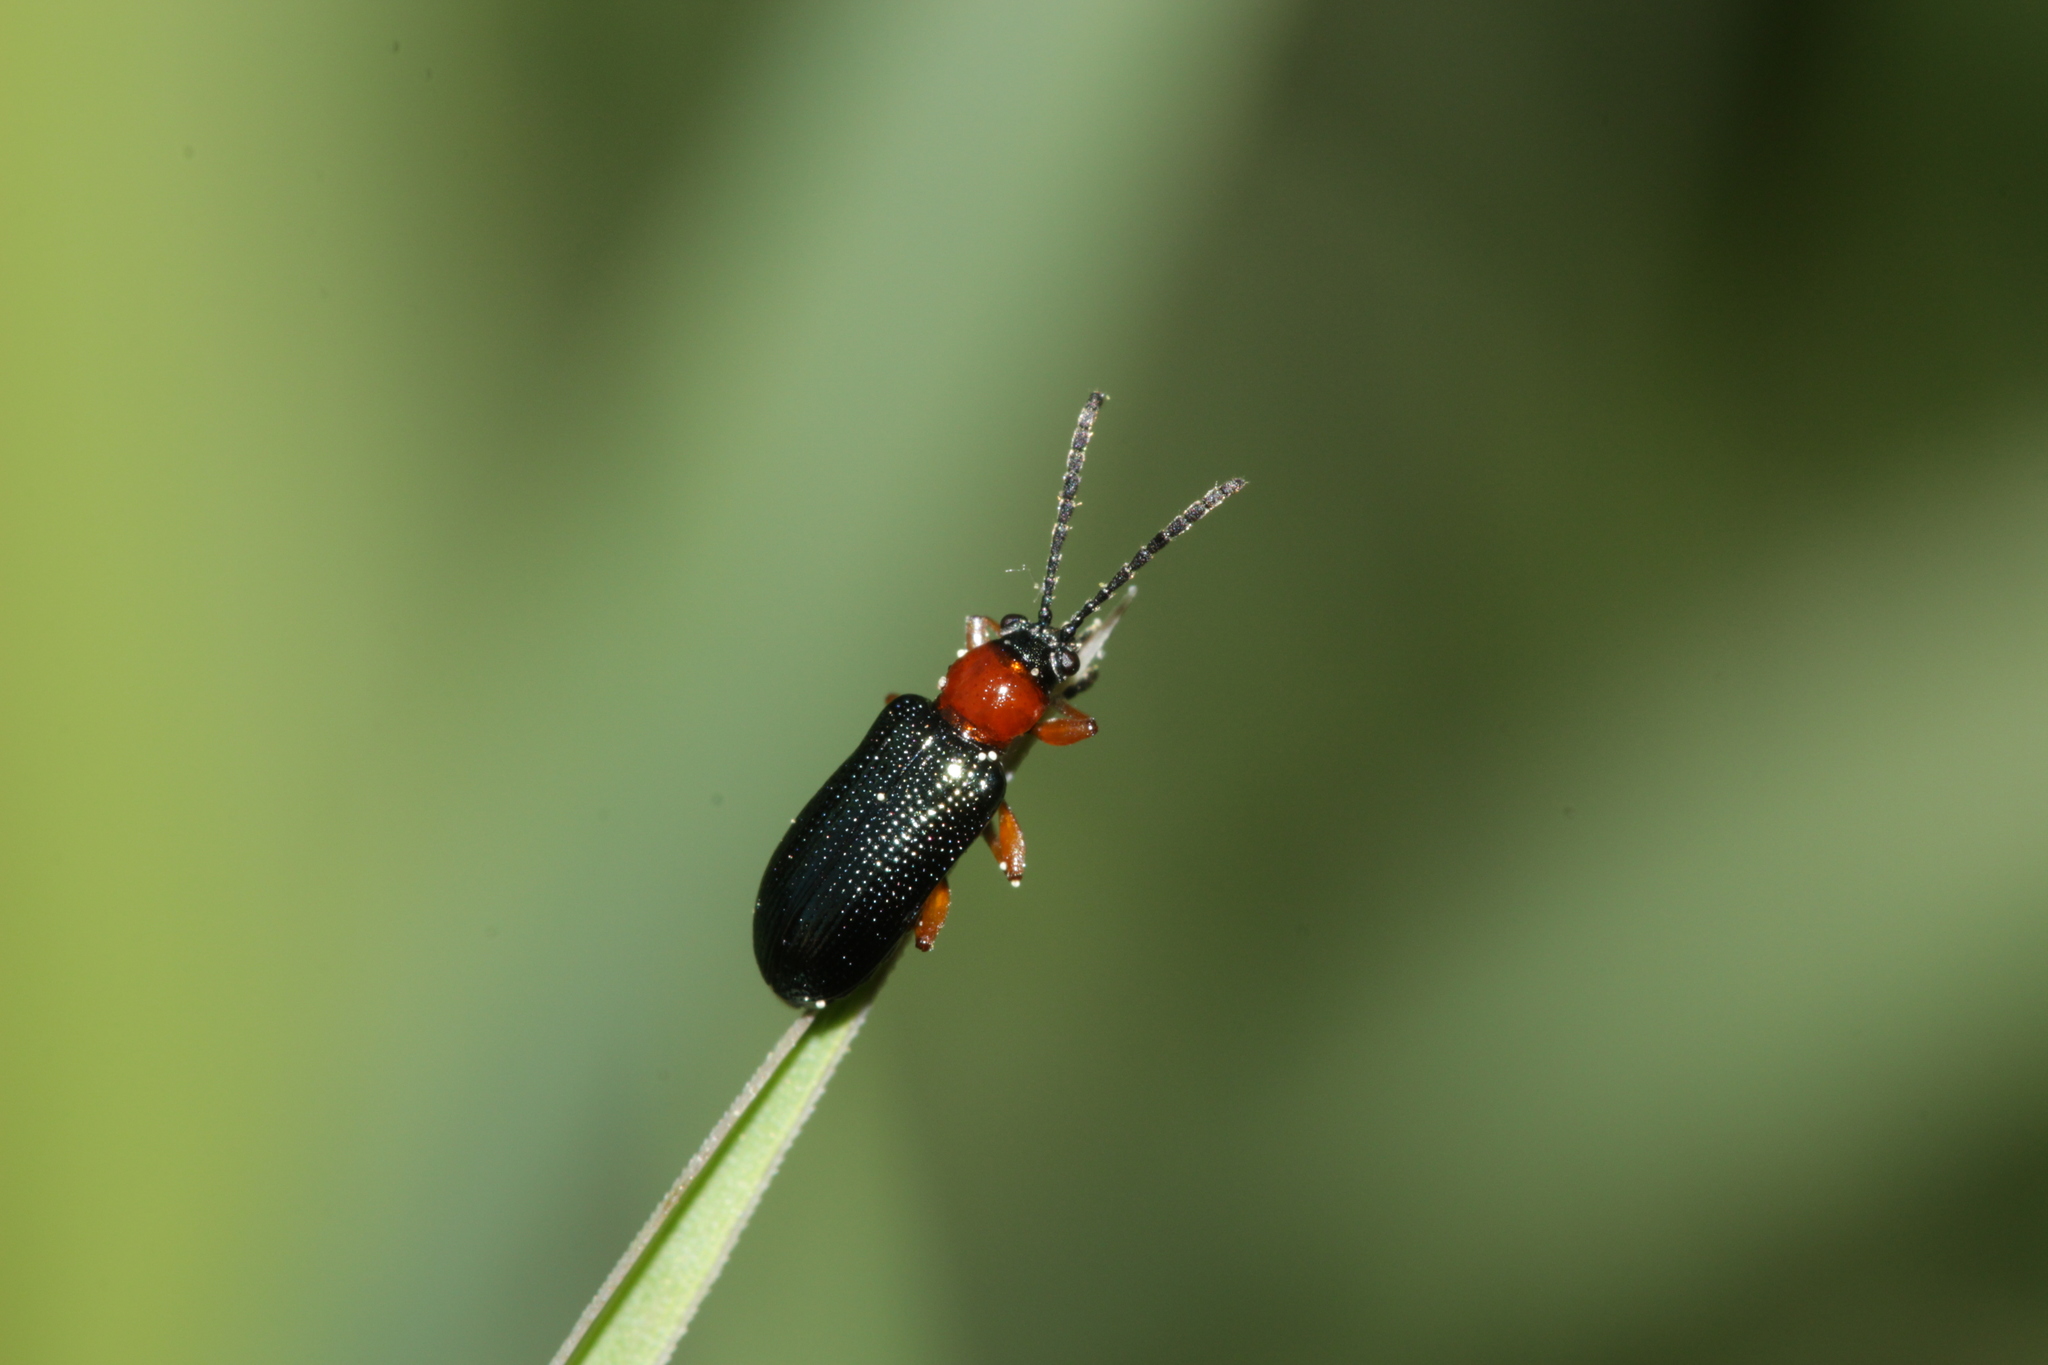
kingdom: Animalia
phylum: Arthropoda
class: Insecta
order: Coleoptera
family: Chrysomelidae
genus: Oulema
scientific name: Oulema
